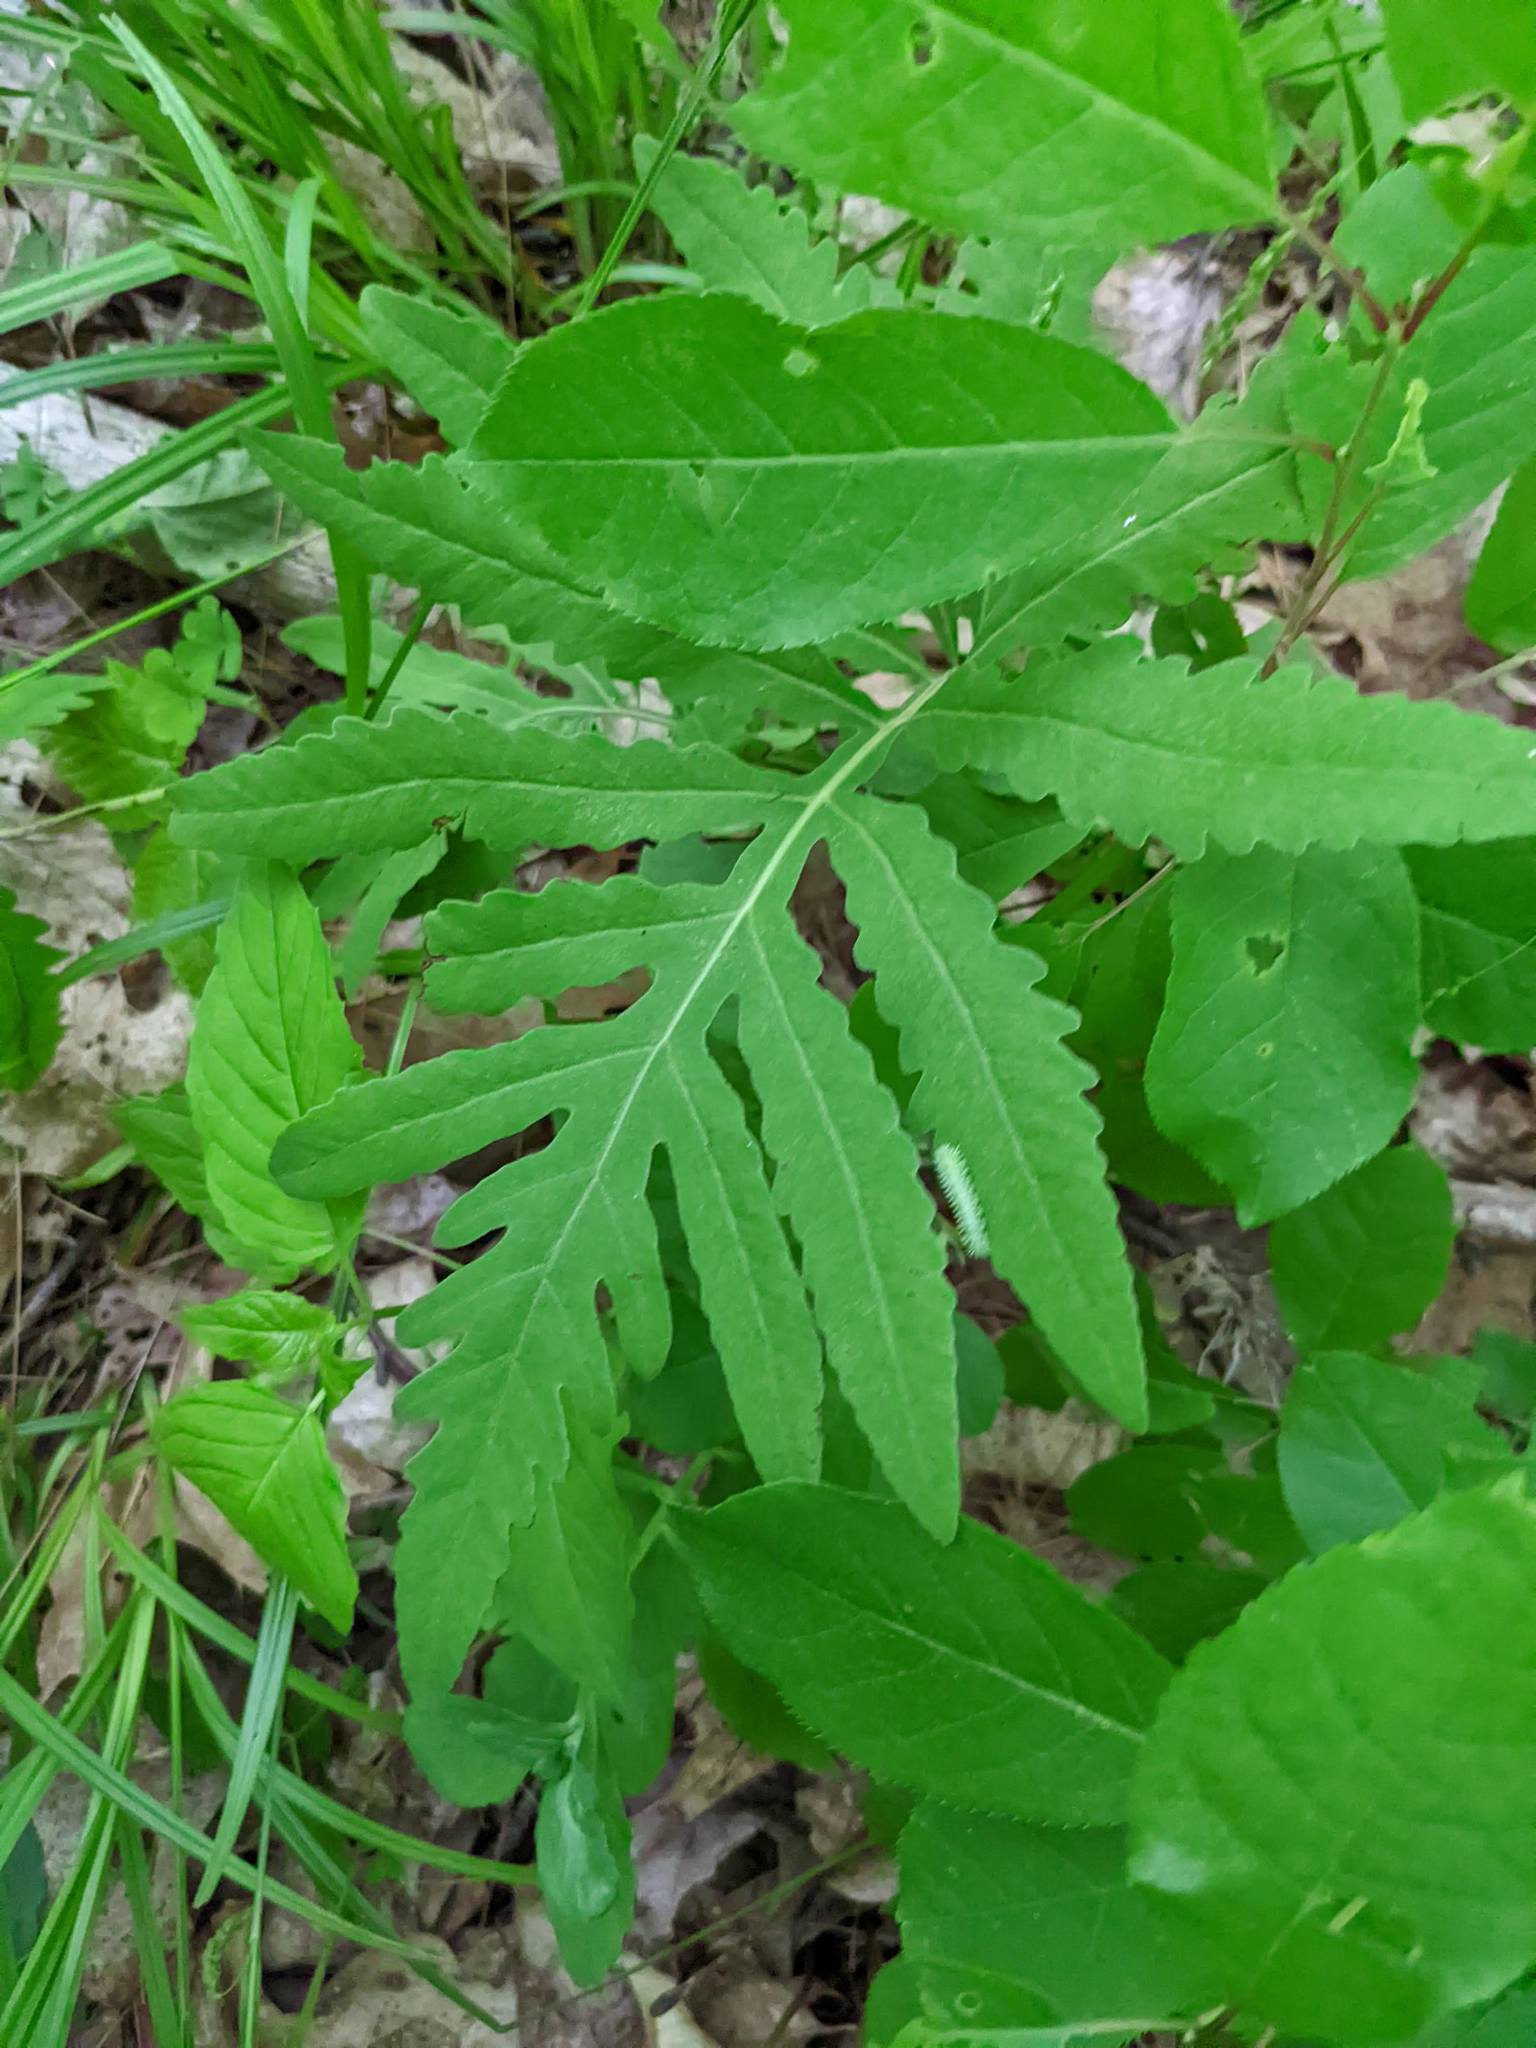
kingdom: Plantae
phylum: Tracheophyta
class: Polypodiopsida
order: Polypodiales
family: Onocleaceae
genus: Onoclea
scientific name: Onoclea sensibilis
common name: Sensitive fern
